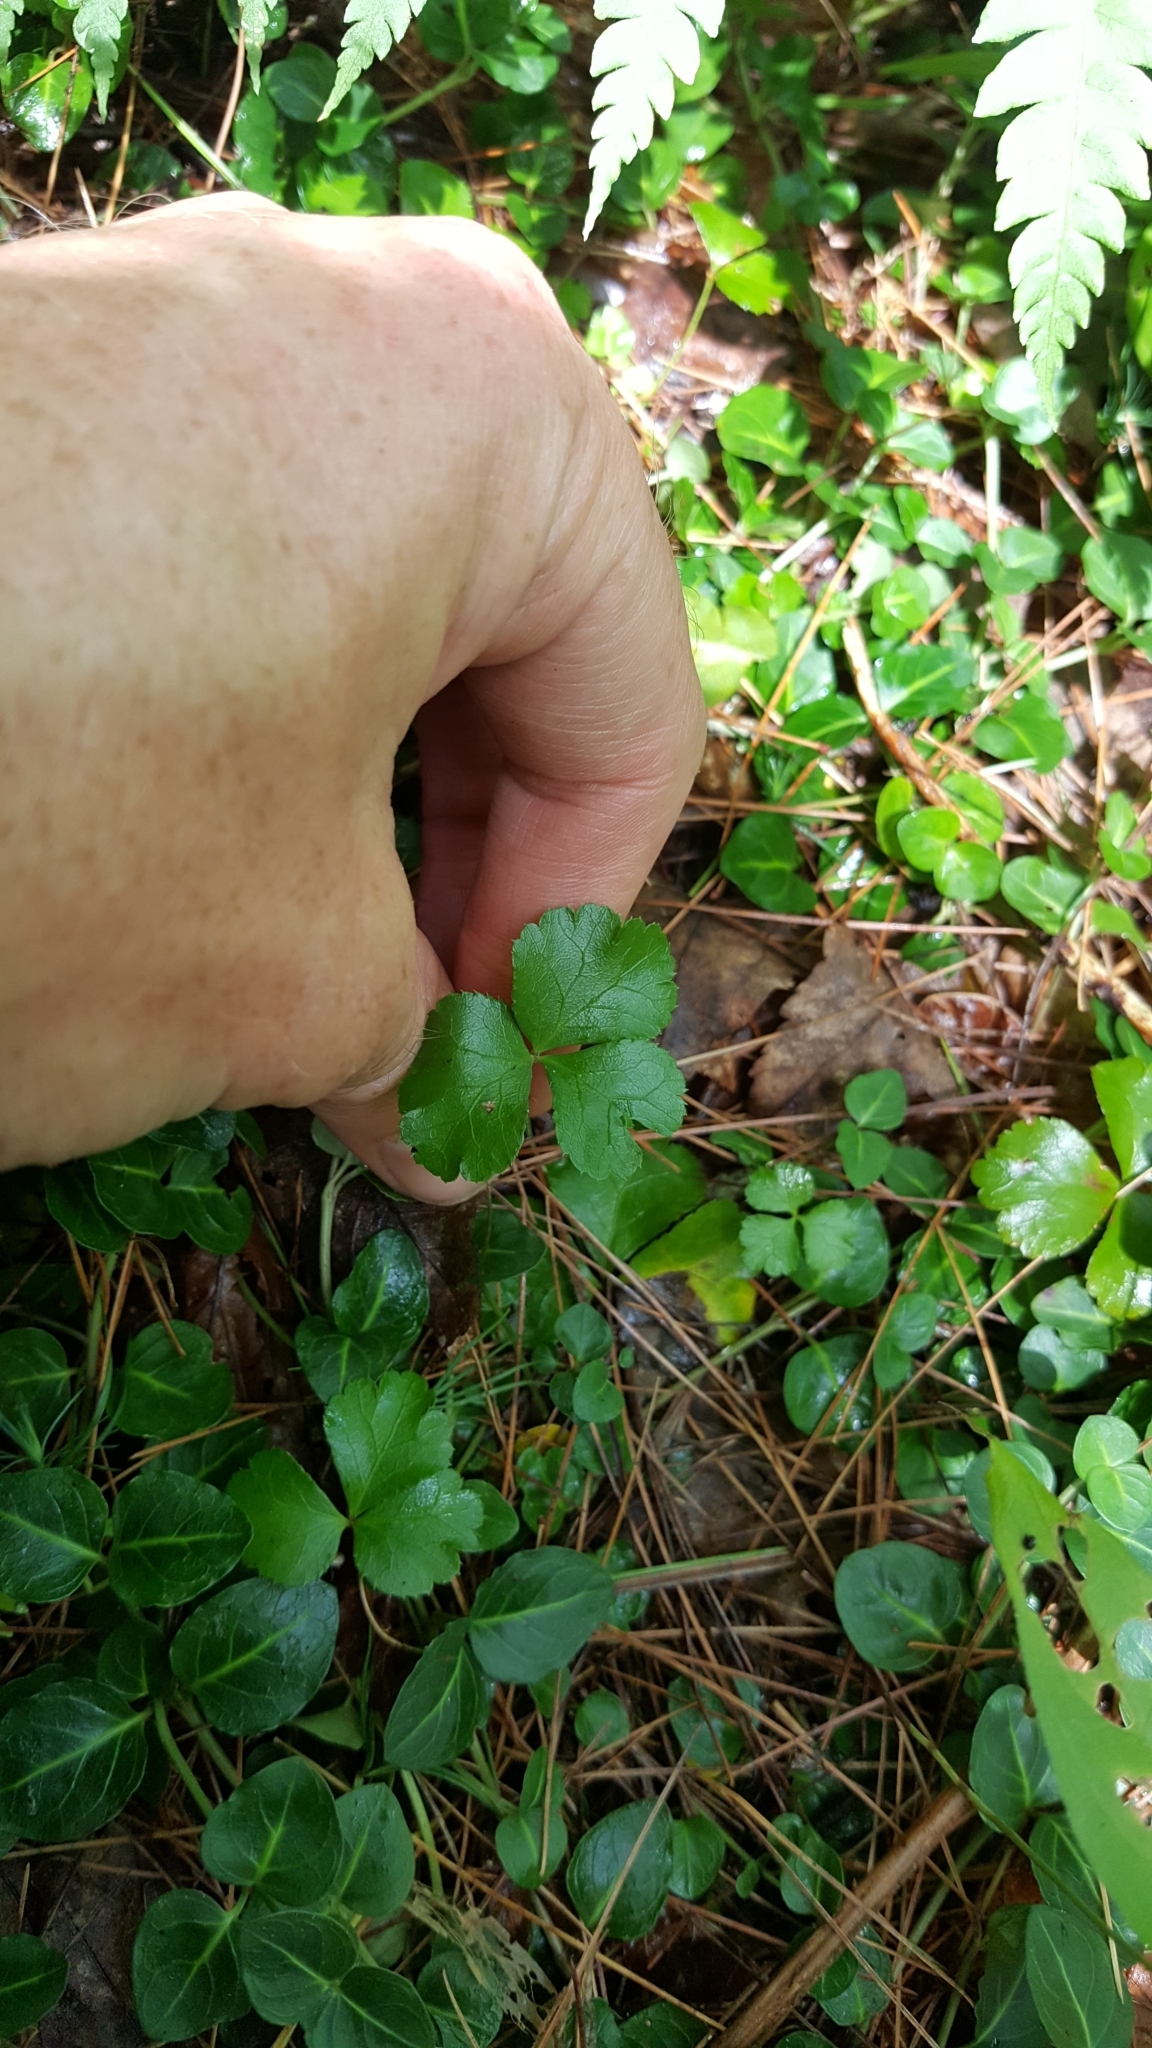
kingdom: Plantae
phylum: Tracheophyta
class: Magnoliopsida
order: Ranunculales
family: Ranunculaceae
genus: Coptis
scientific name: Coptis trifolia
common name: Canker-root
